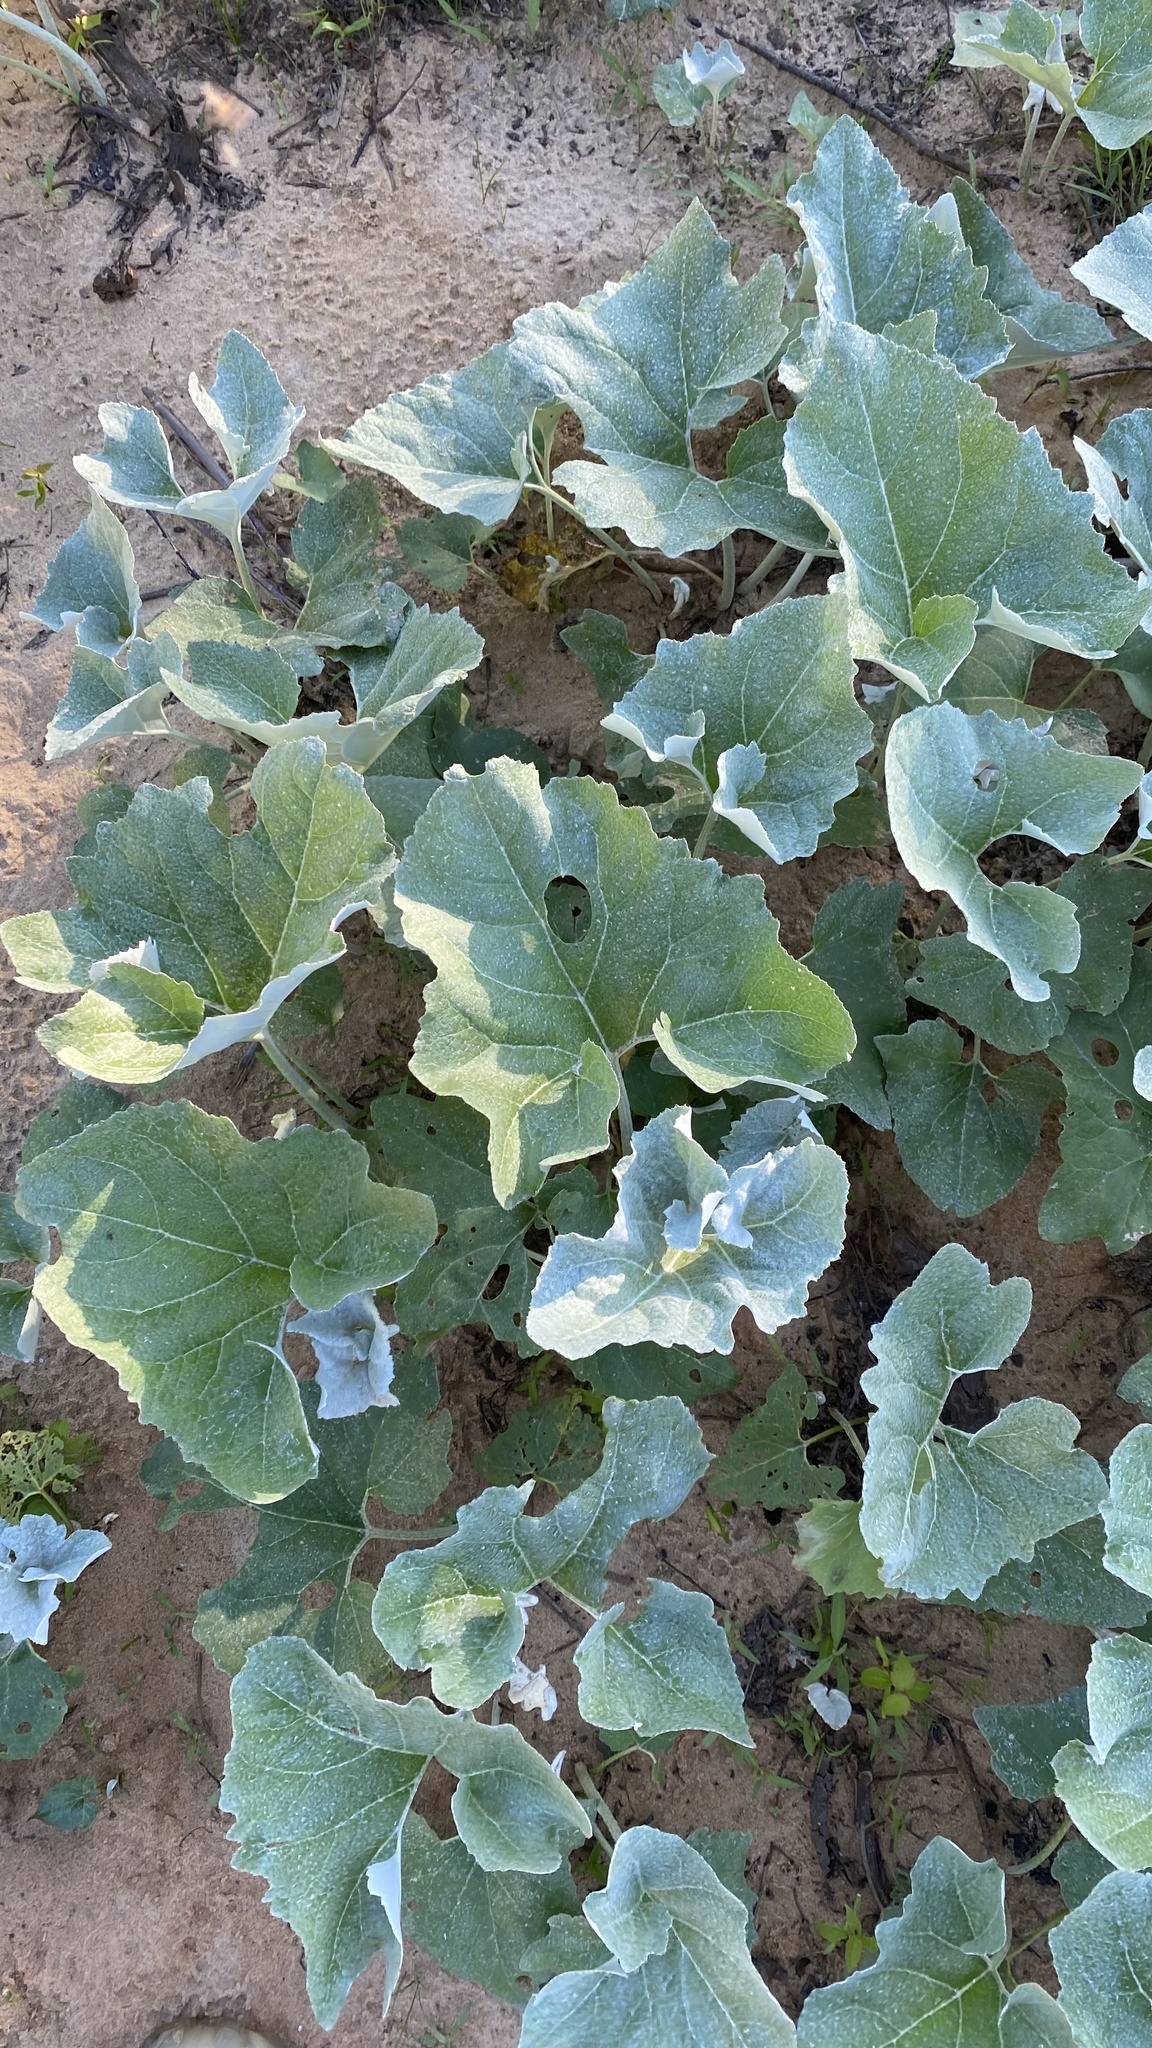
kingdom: Plantae
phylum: Tracheophyta
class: Magnoliopsida
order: Asterales
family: Asteraceae
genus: Petasites
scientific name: Petasites spurius
